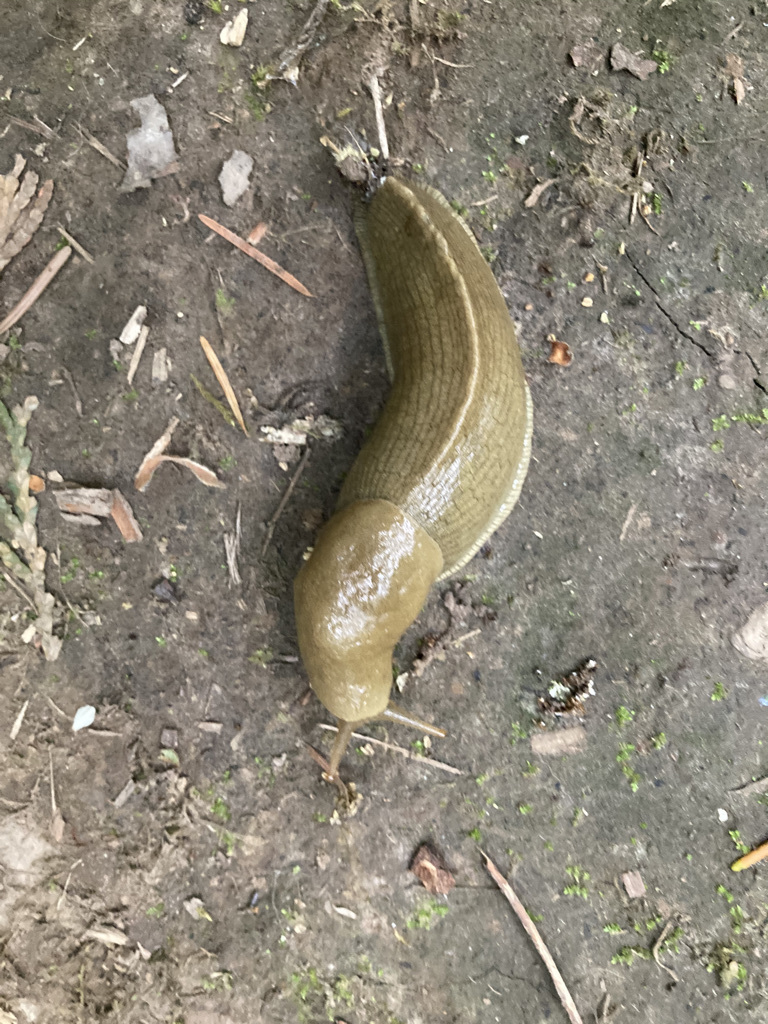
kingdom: Animalia
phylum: Mollusca
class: Gastropoda
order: Stylommatophora
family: Ariolimacidae
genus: Ariolimax
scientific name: Ariolimax columbianus
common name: Pacific banana slug
